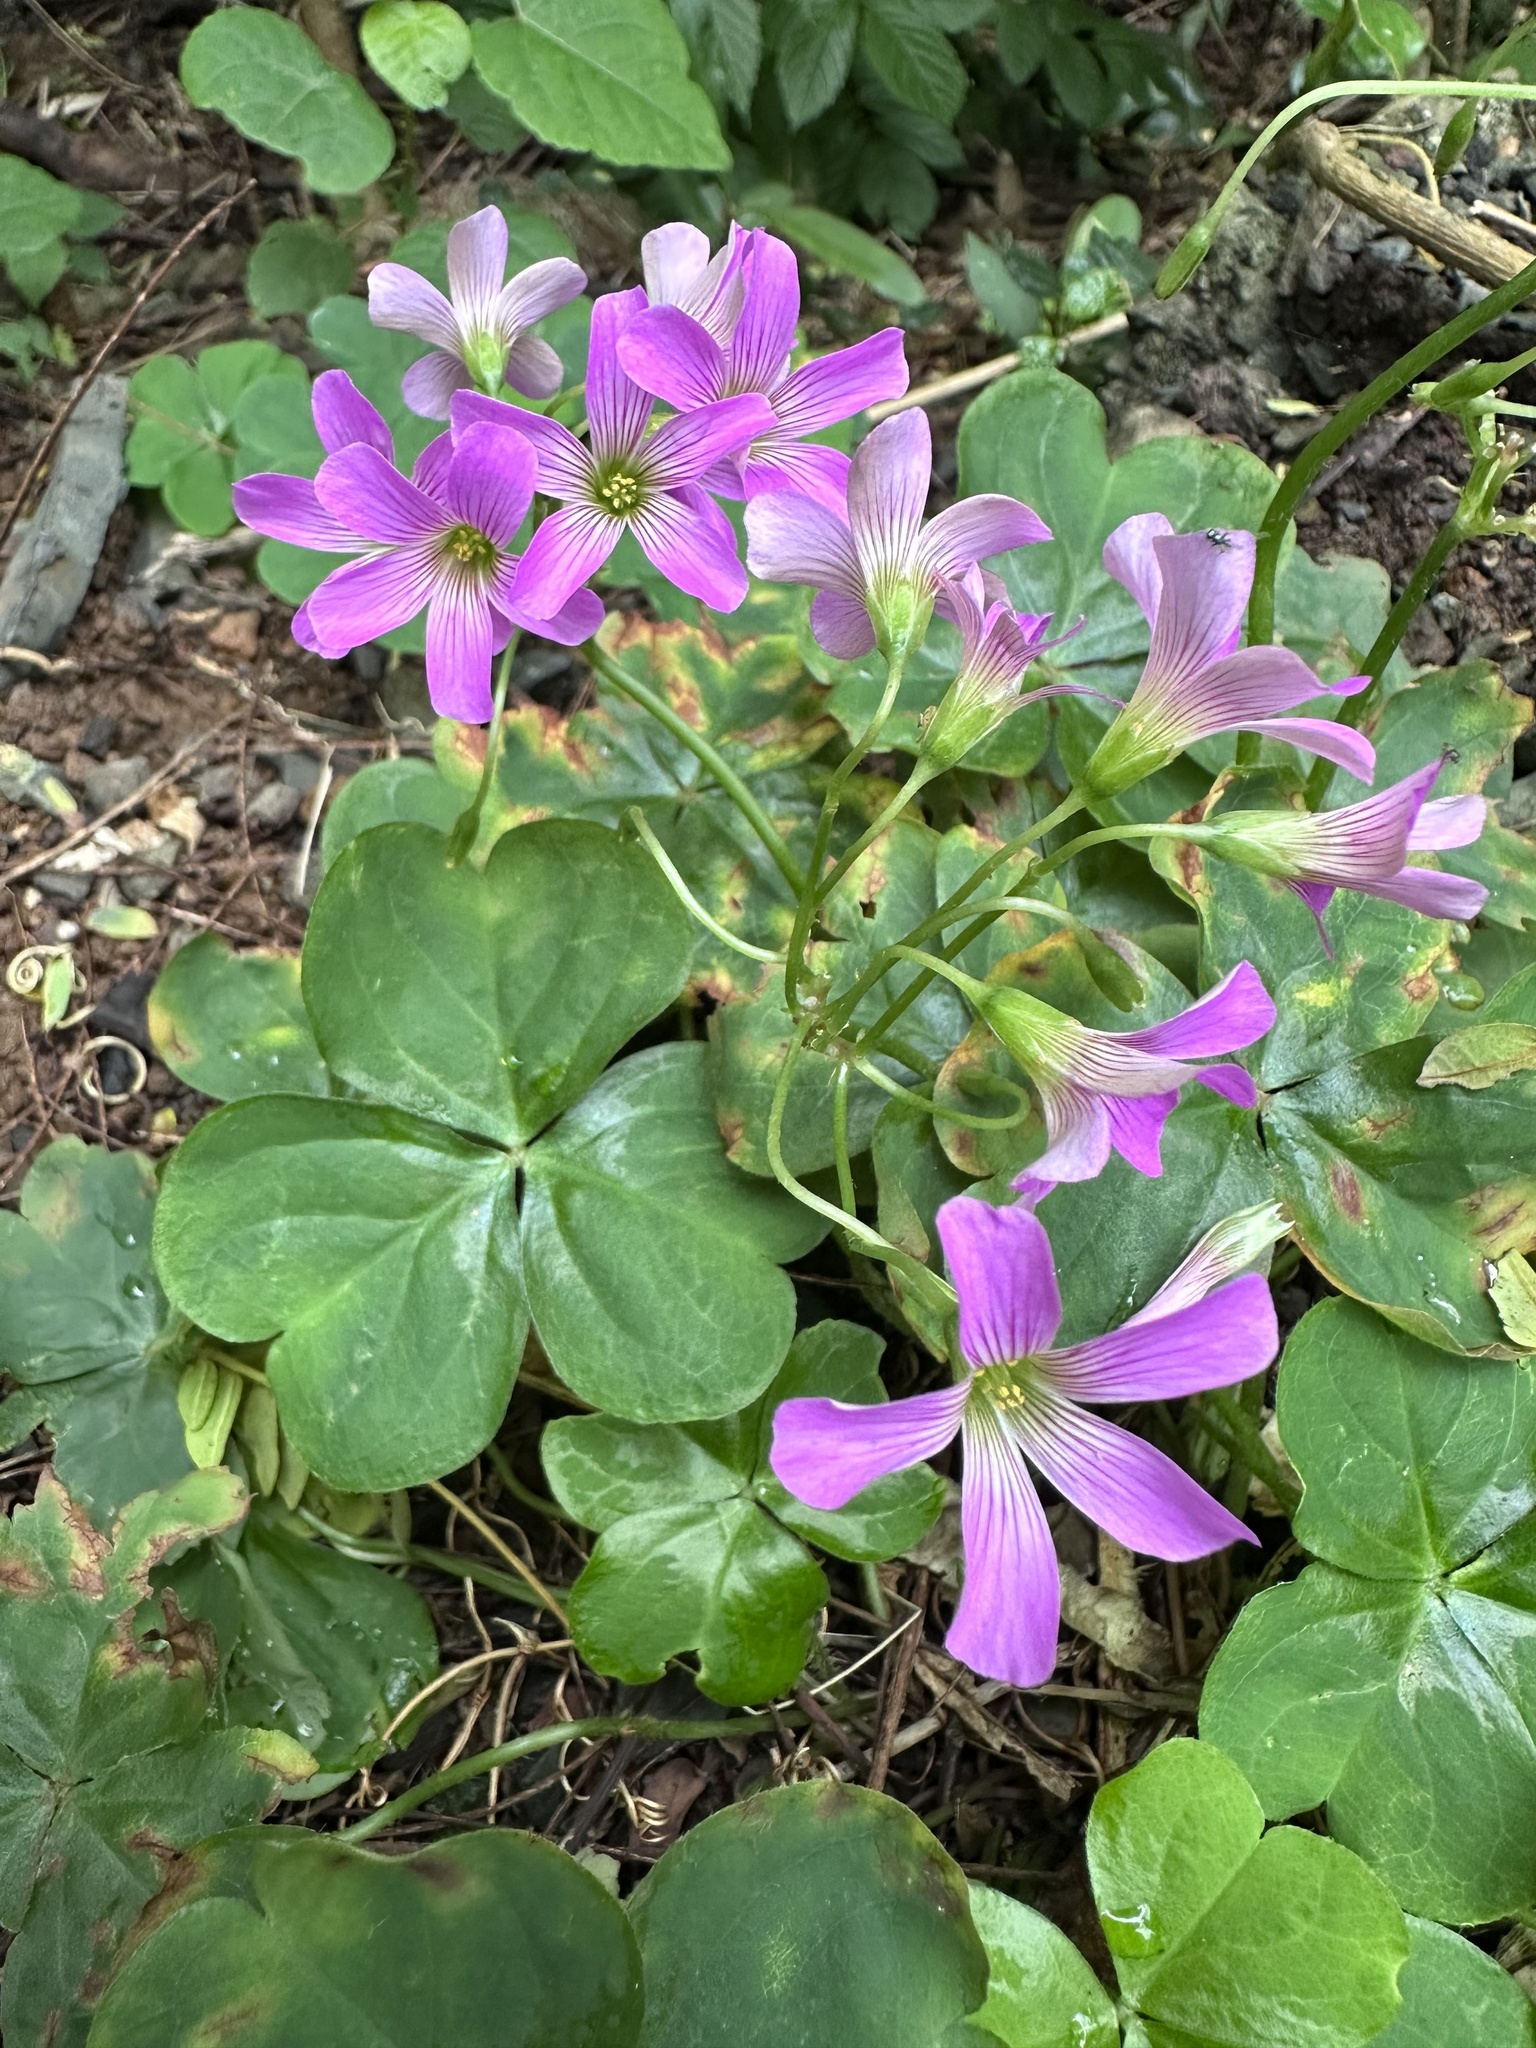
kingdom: Plantae
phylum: Tracheophyta
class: Magnoliopsida
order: Oxalidales
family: Oxalidaceae
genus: Oxalis
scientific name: Oxalis debilis
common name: Large-flowered pink-sorrel
